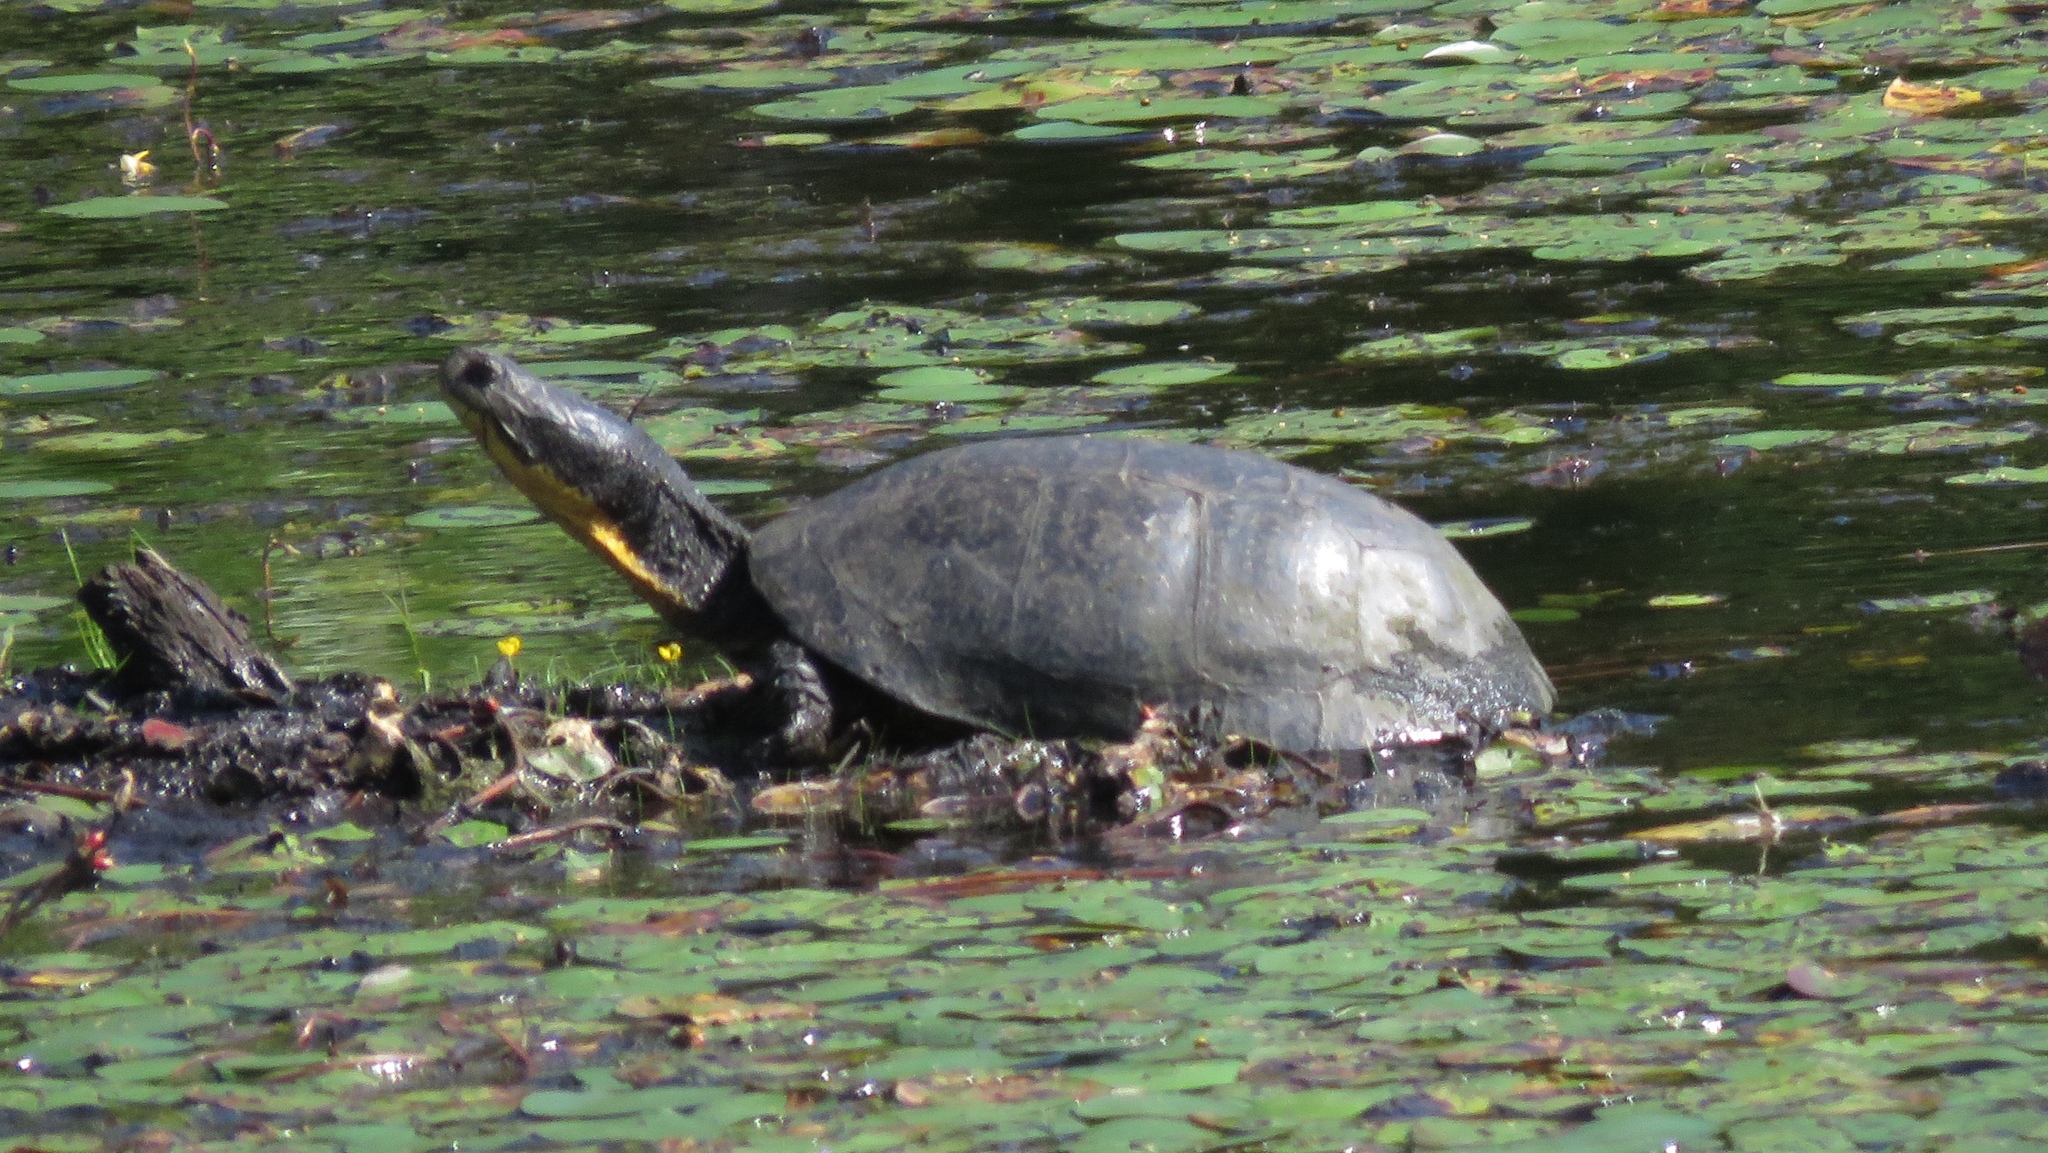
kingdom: Animalia
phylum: Chordata
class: Testudines
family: Emydidae
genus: Emys
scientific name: Emys blandingii
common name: Blanding's turtle
